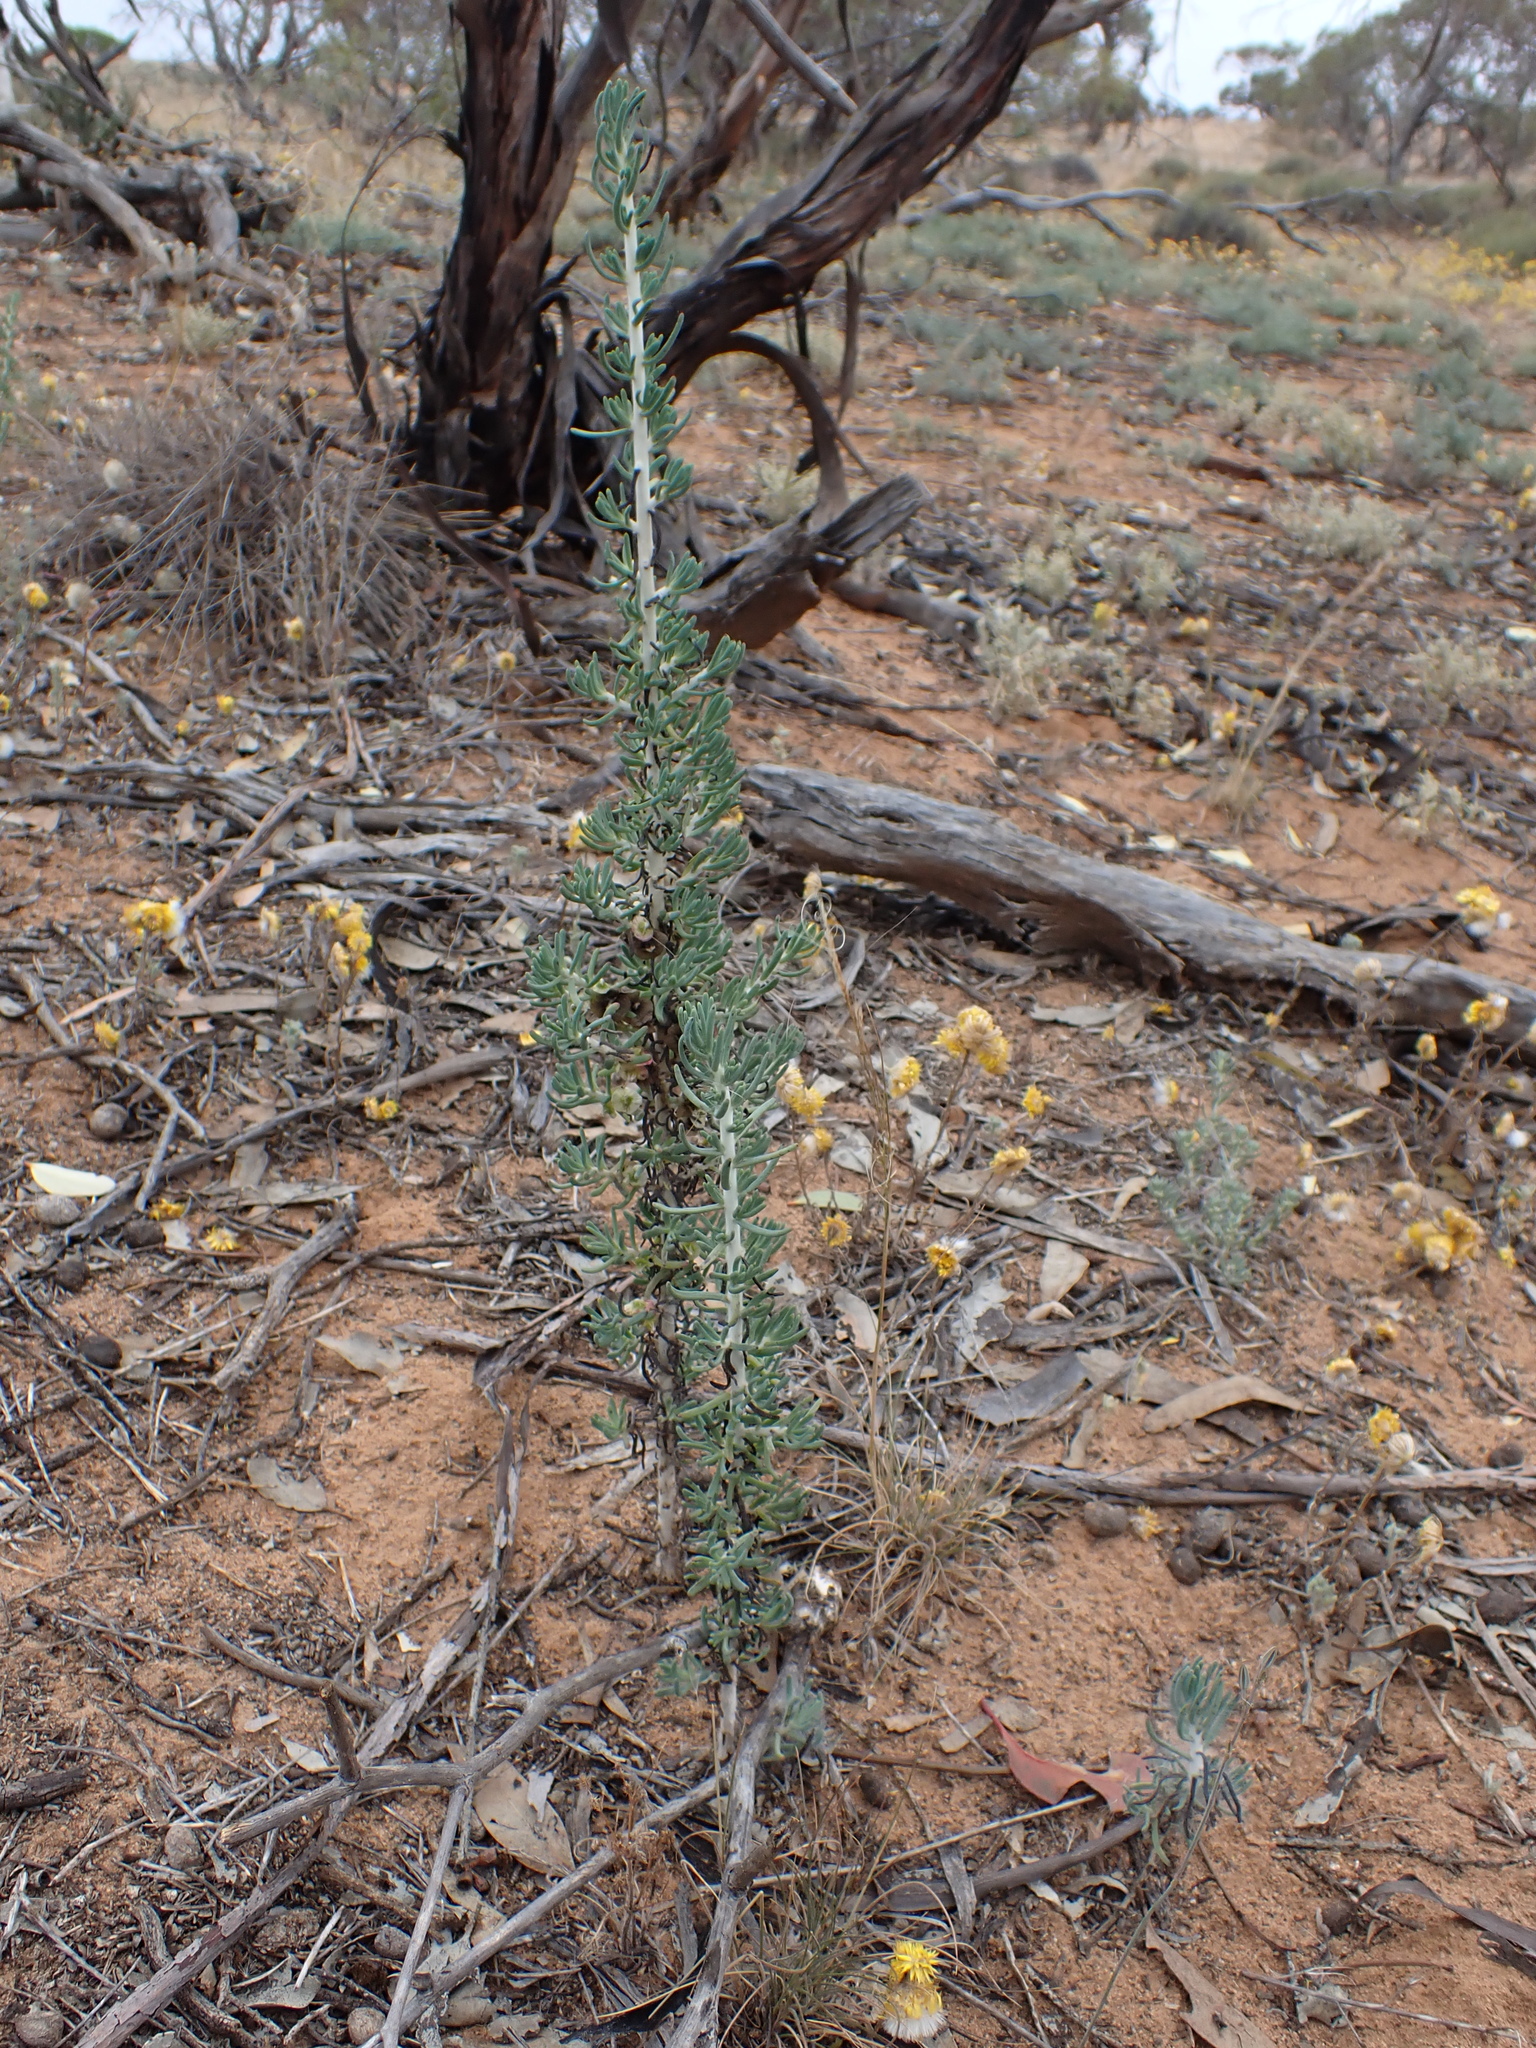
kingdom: Plantae
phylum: Tracheophyta
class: Magnoliopsida
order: Caryophyllales
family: Amaranthaceae
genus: Maireana
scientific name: Maireana pentatropis
